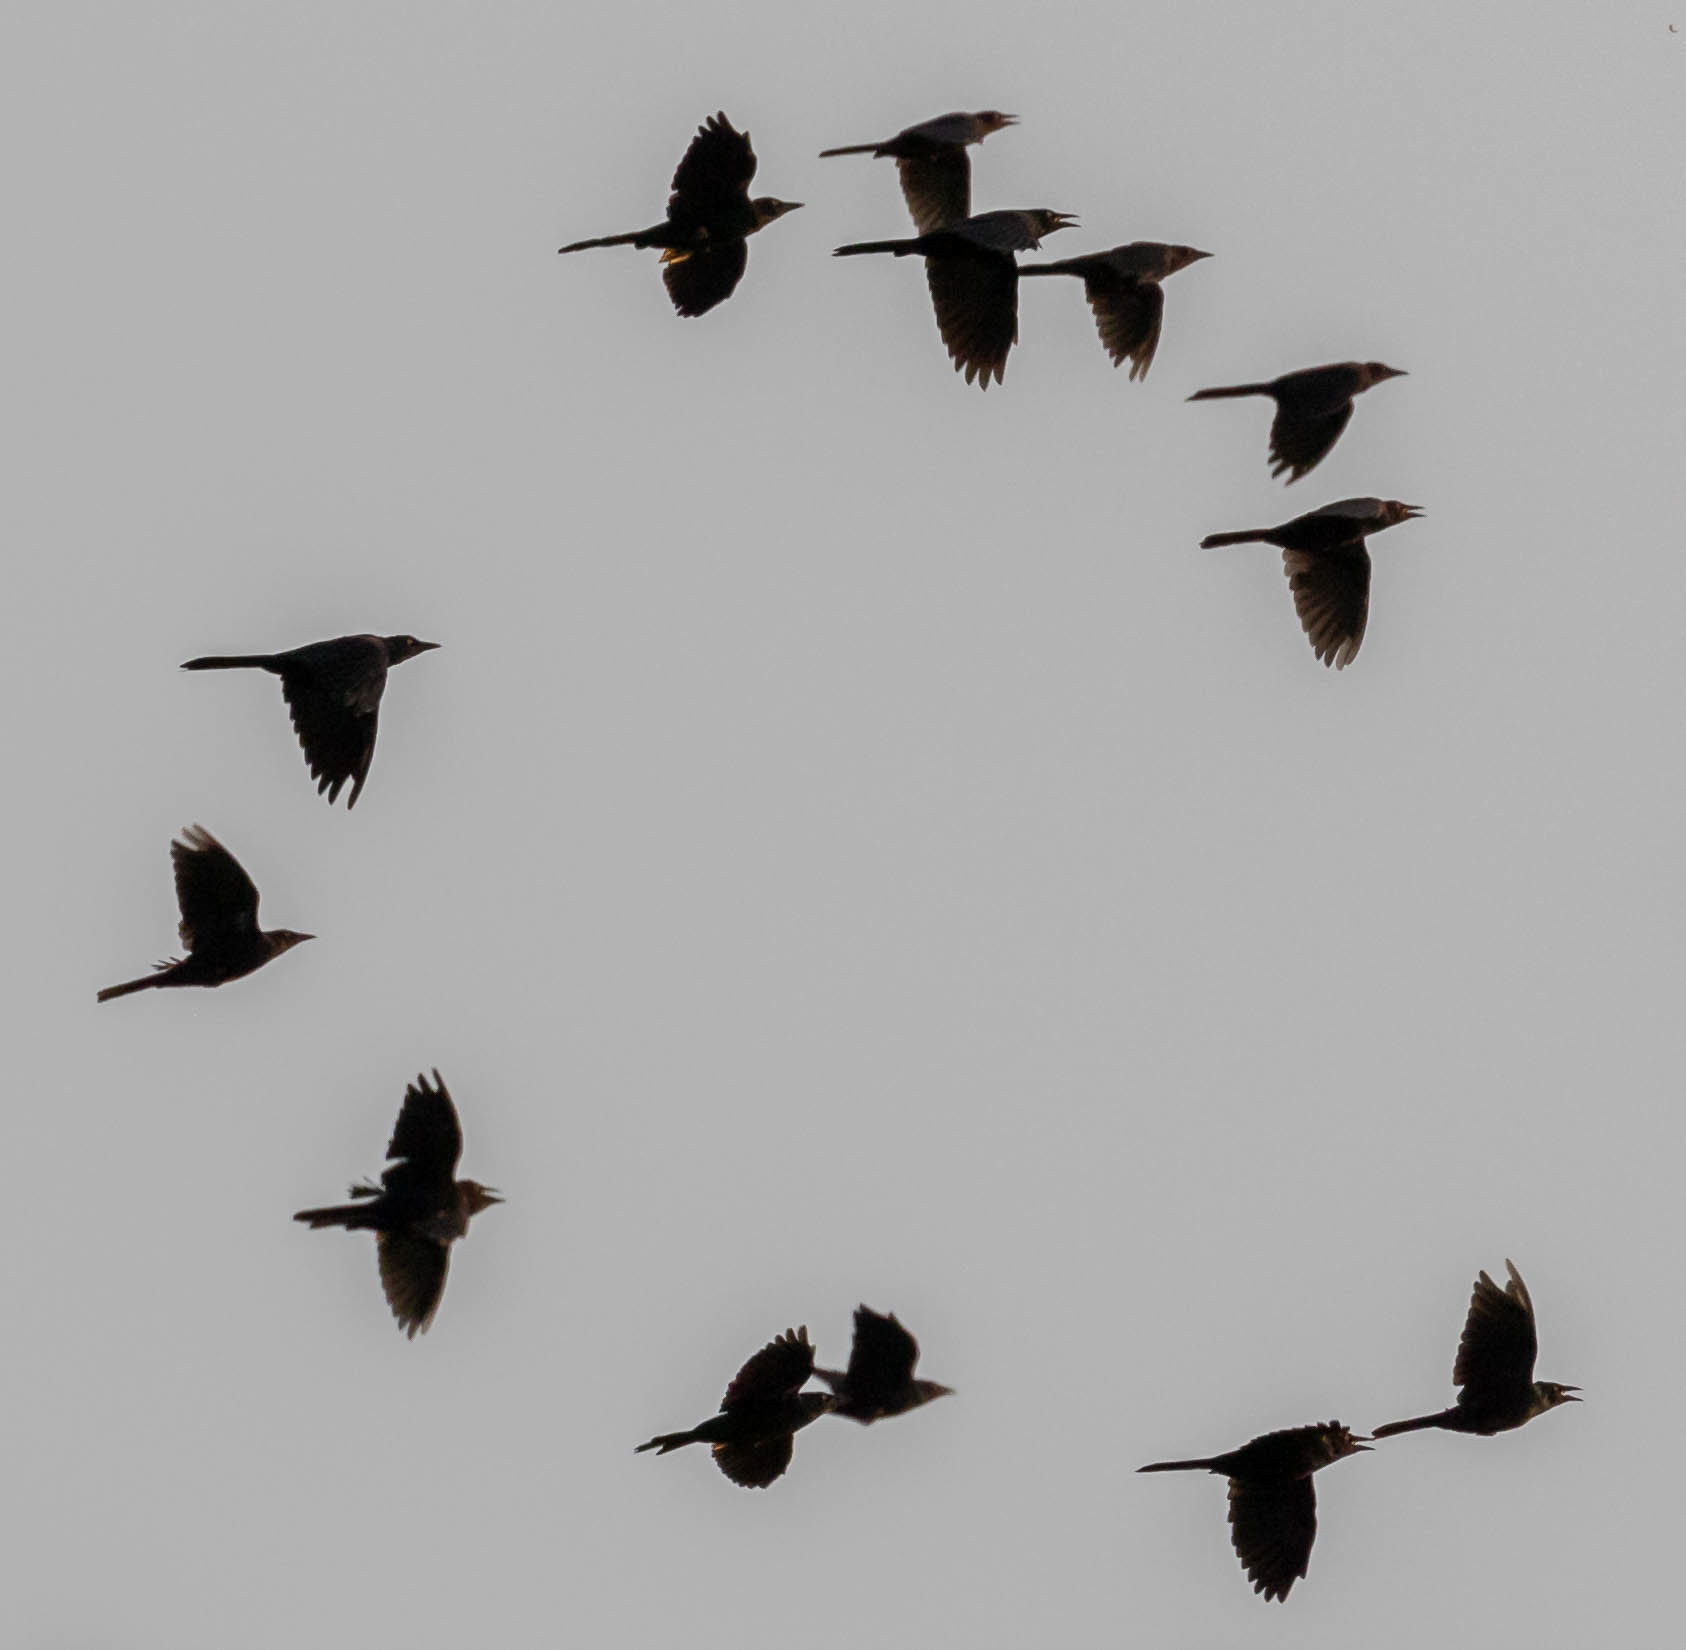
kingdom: Animalia
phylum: Chordata
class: Aves
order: Passeriformes
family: Icteridae
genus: Quiscalus
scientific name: Quiscalus quiscula
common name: Common grackle
